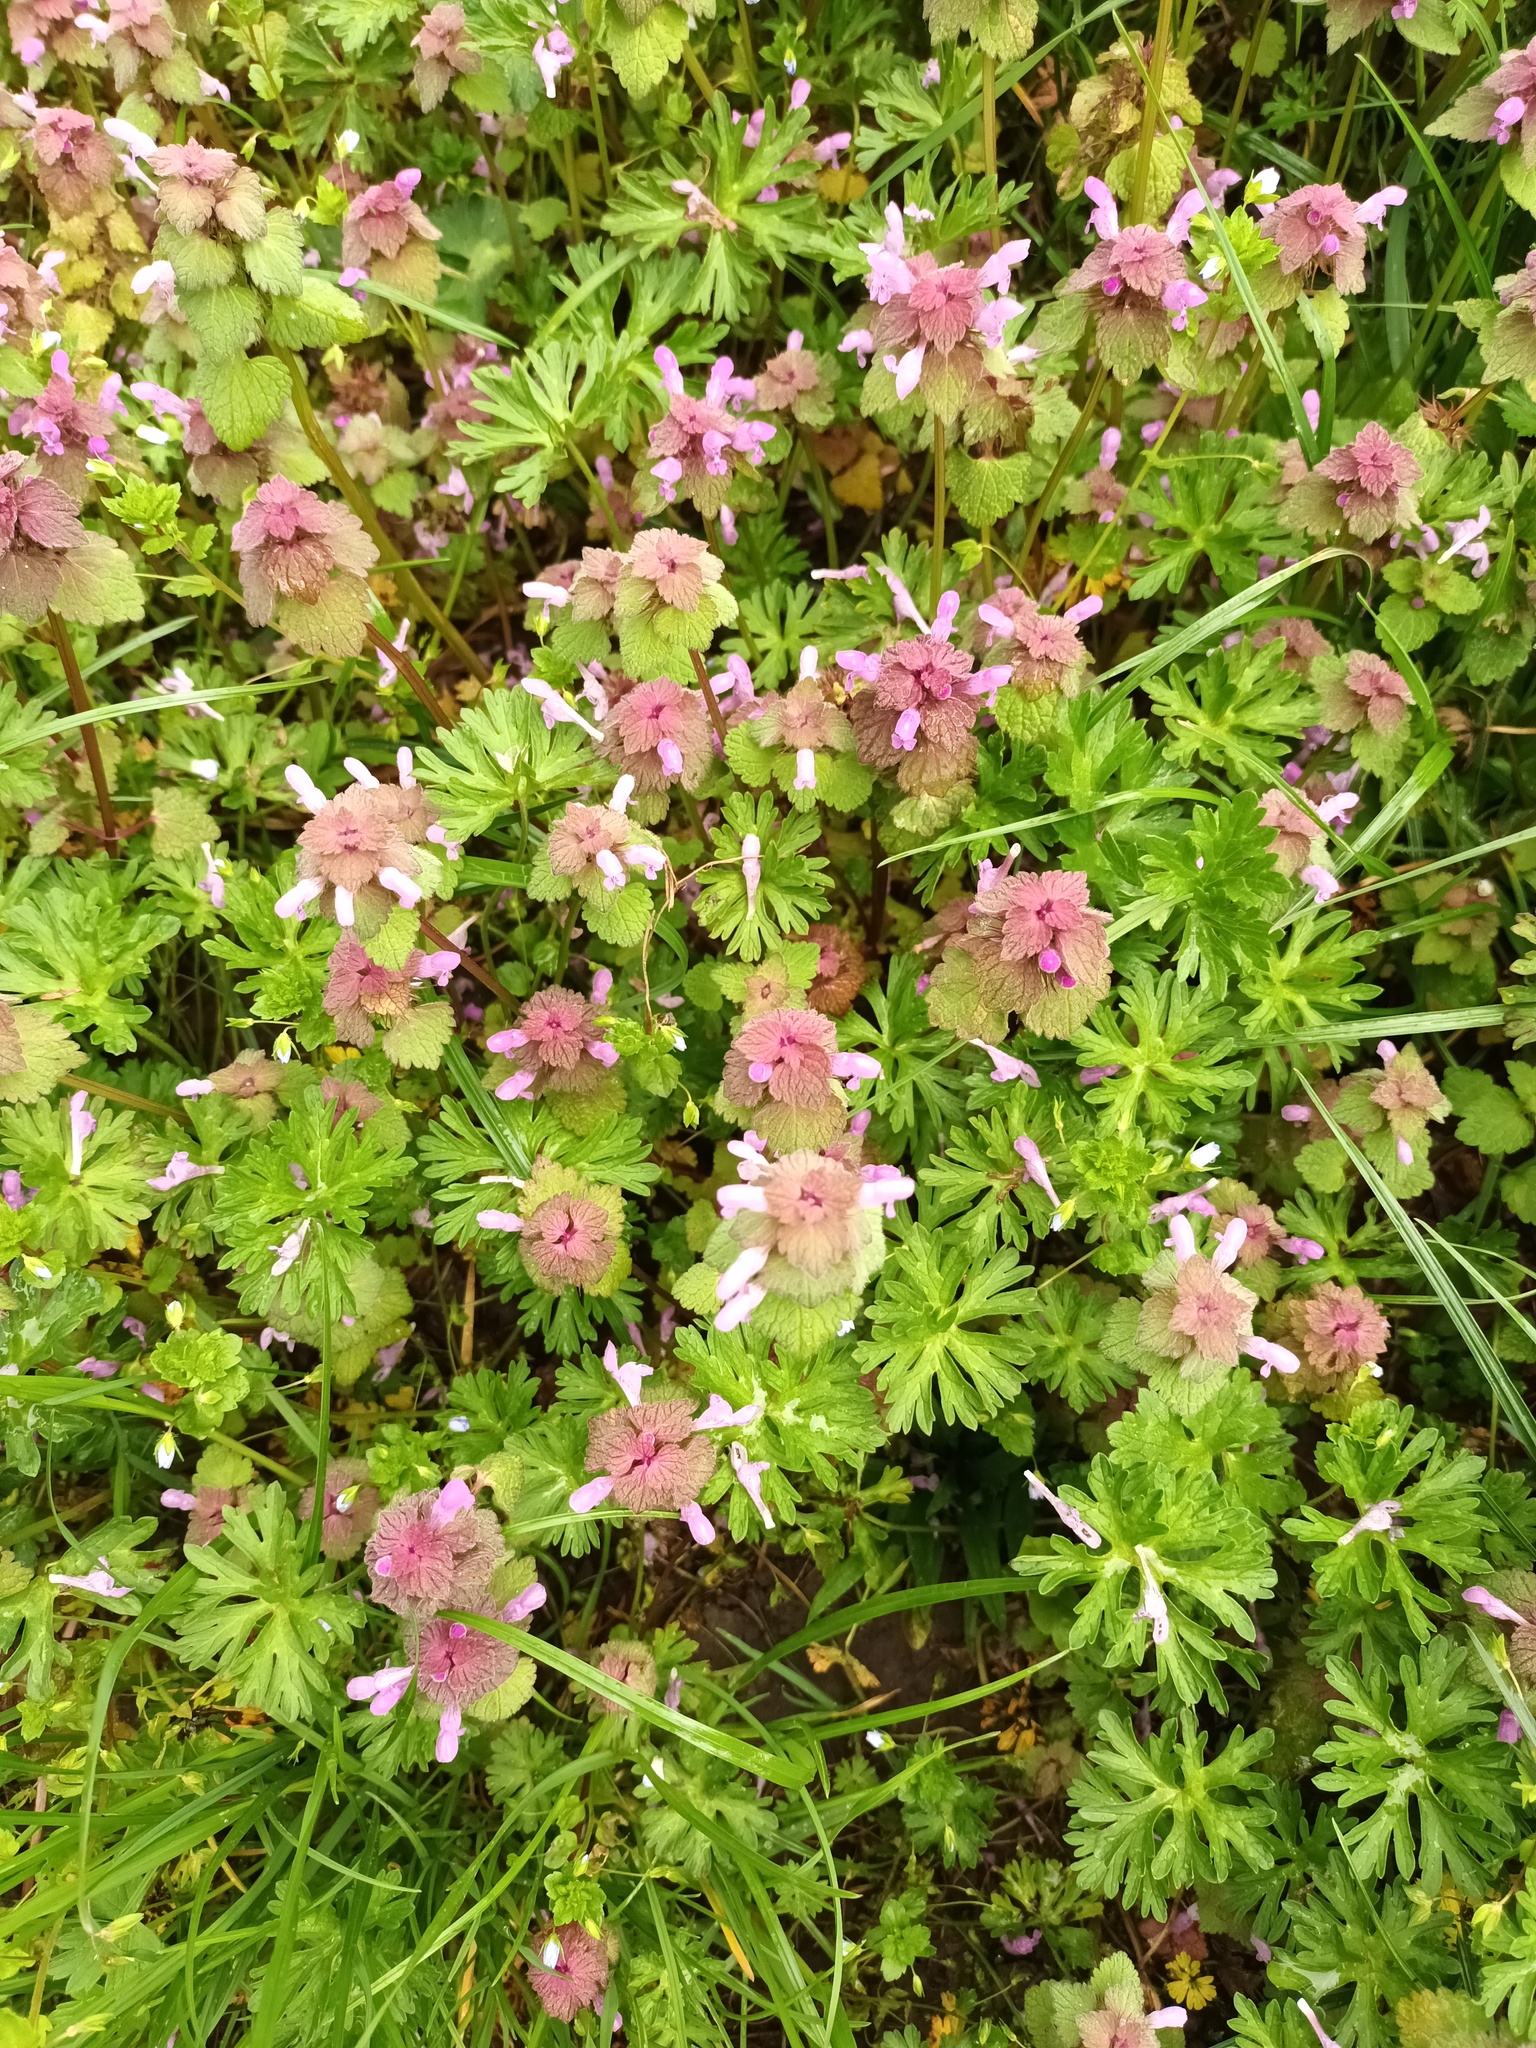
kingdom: Plantae
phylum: Tracheophyta
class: Magnoliopsida
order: Lamiales
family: Lamiaceae
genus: Lamium
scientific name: Lamium purpureum
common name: Red dead-nettle
